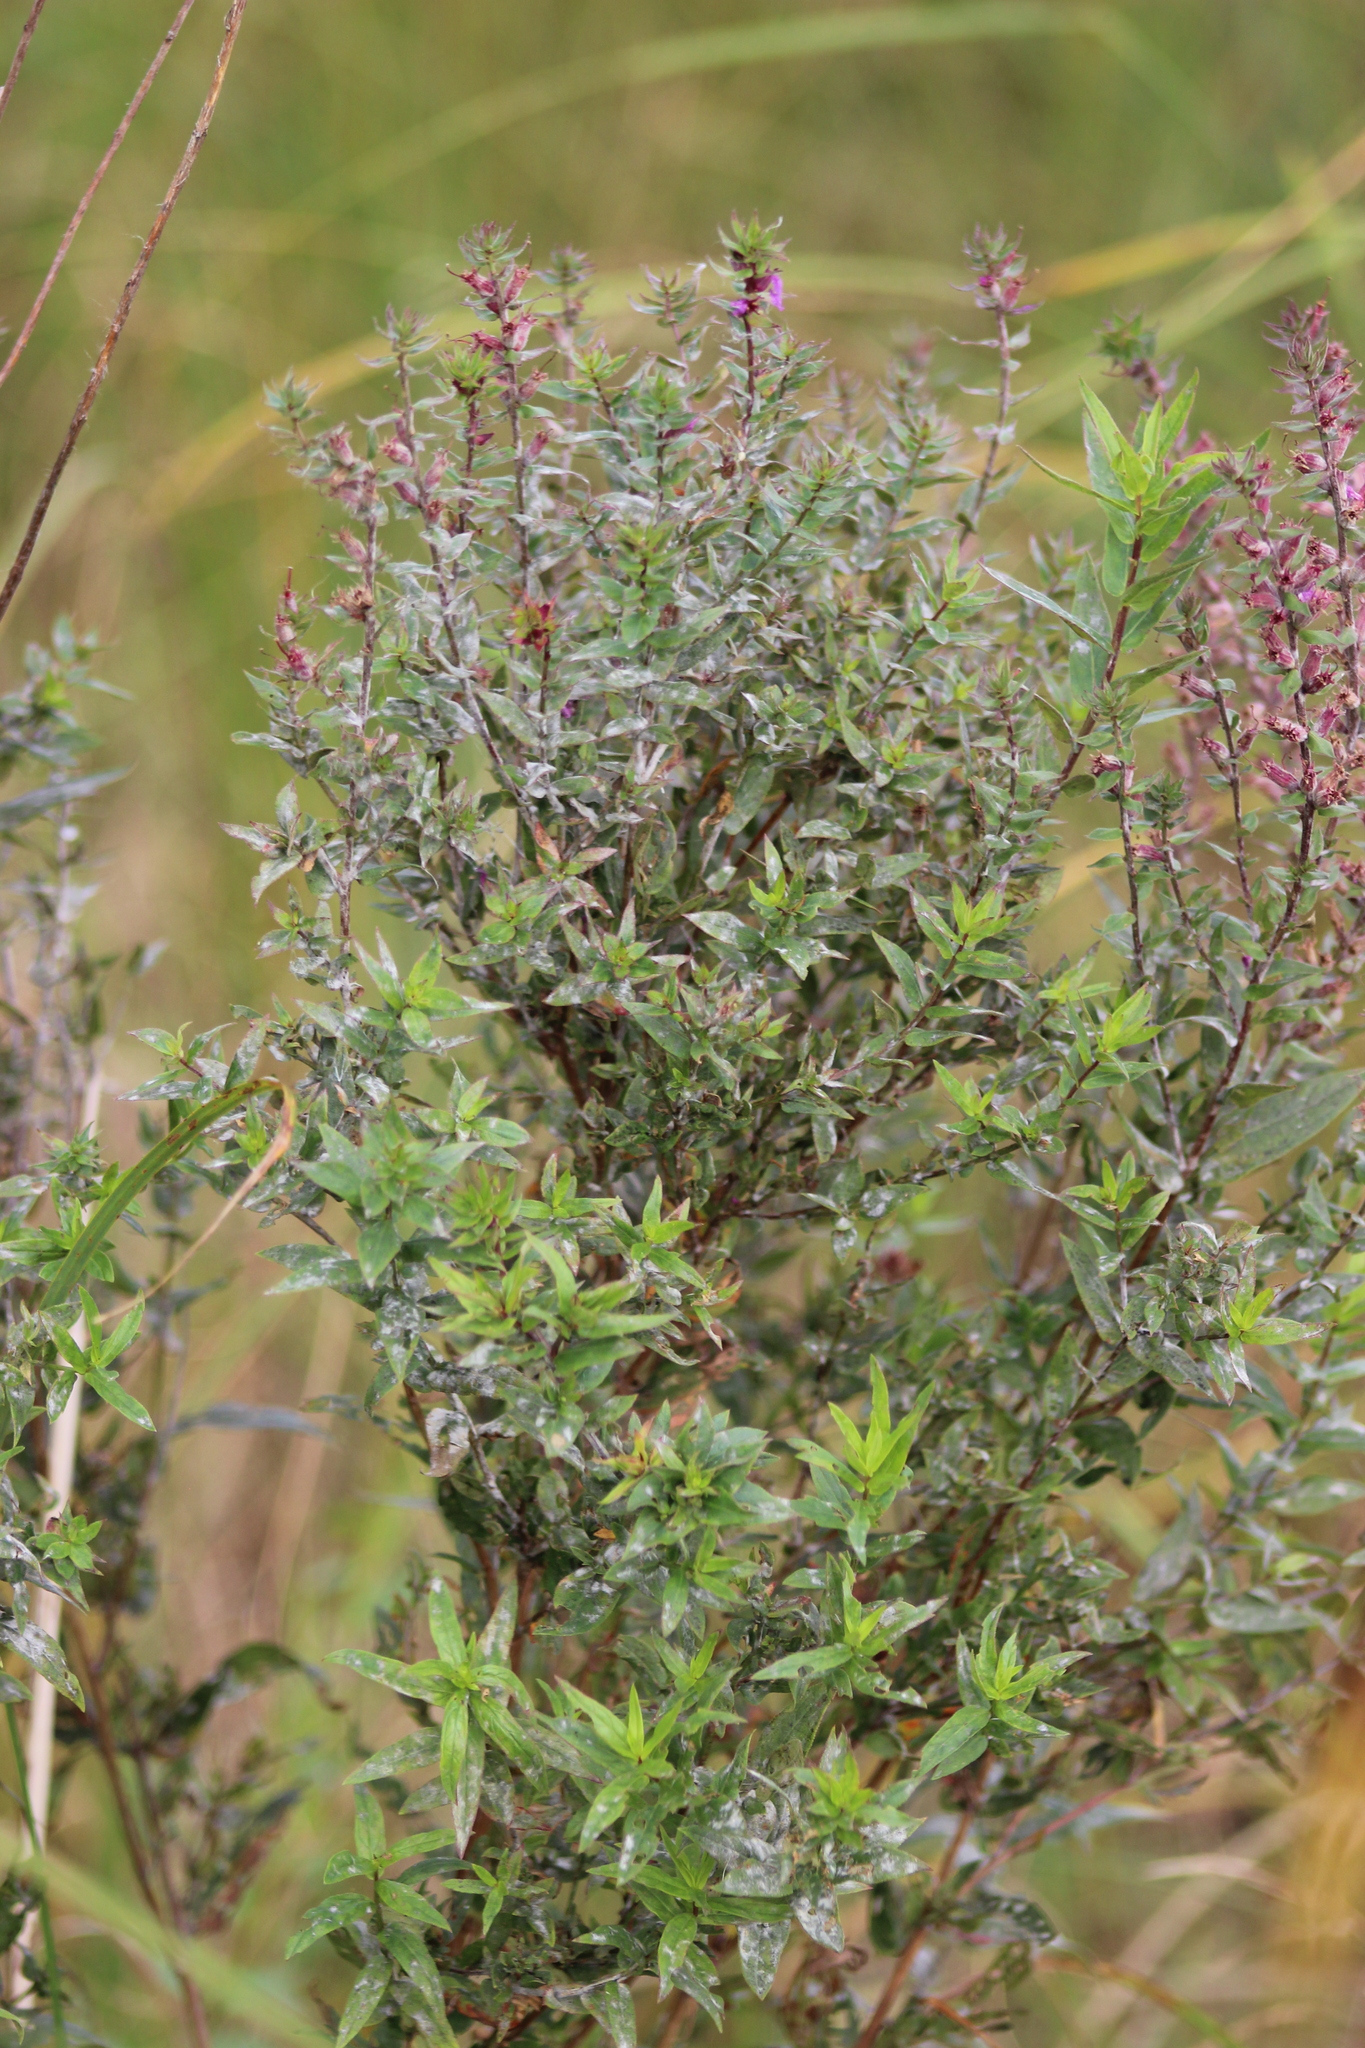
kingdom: Plantae
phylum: Tracheophyta
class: Magnoliopsida
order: Myrtales
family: Lythraceae
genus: Lythrum
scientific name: Lythrum salicaria
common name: Purple loosestrife
